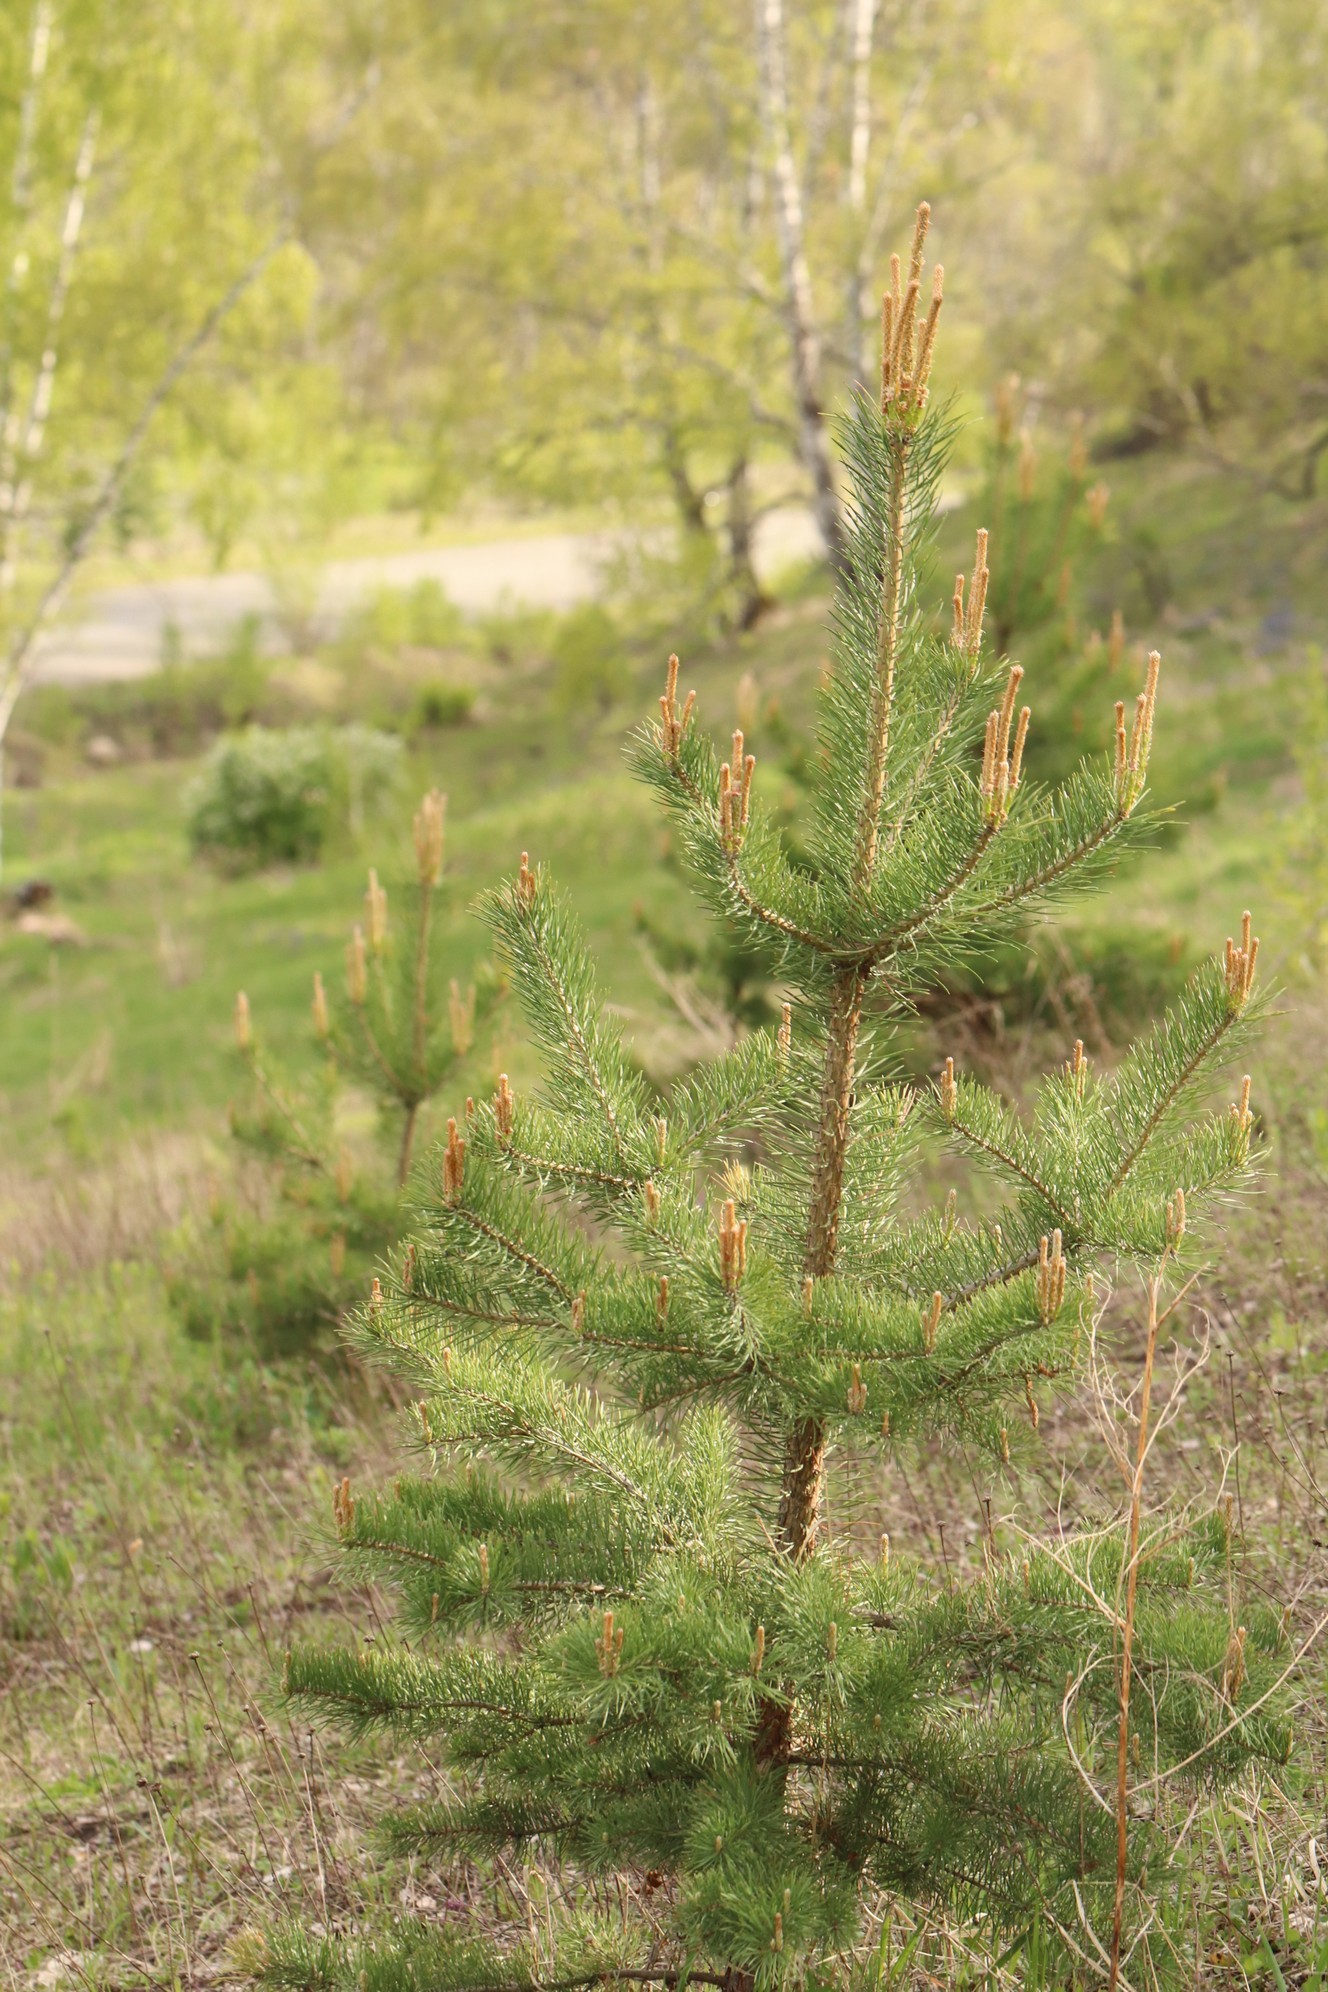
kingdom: Plantae
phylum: Tracheophyta
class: Pinopsida
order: Pinales
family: Pinaceae
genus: Pinus
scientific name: Pinus sylvestris
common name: Scots pine
